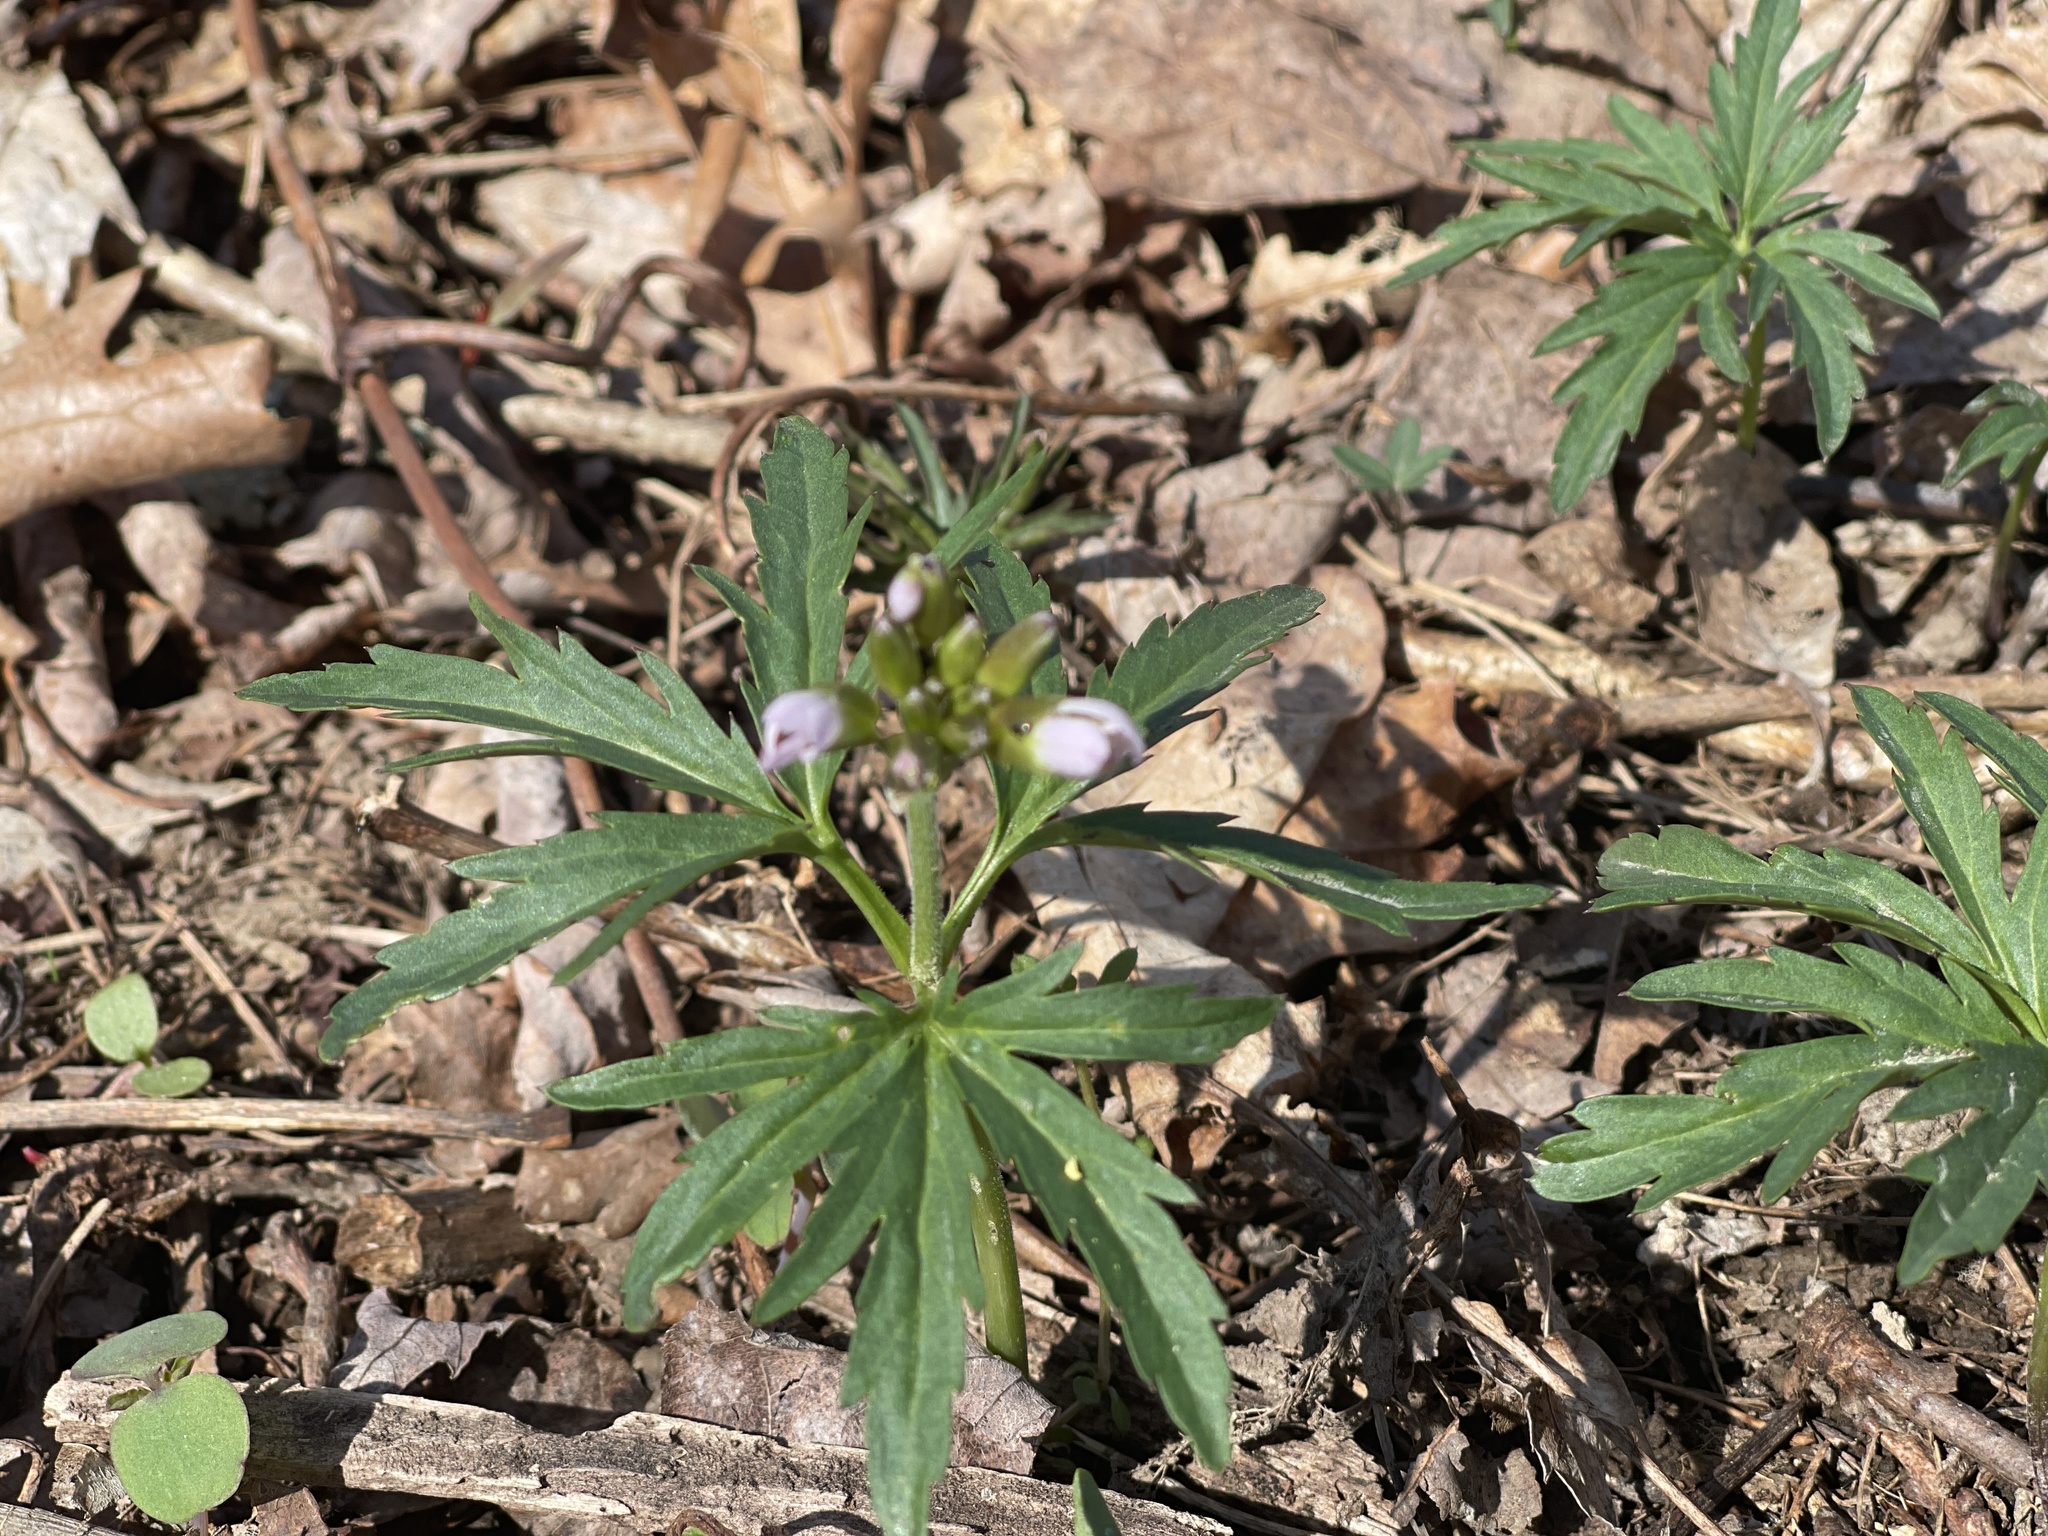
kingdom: Plantae
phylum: Tracheophyta
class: Magnoliopsida
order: Brassicales
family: Brassicaceae
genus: Cardamine
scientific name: Cardamine concatenata
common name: Cut-leaf toothcup
